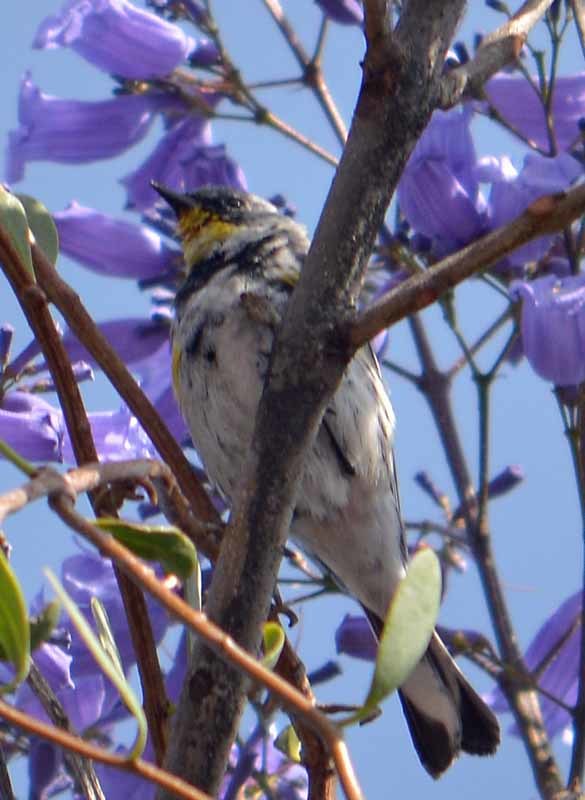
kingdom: Animalia
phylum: Chordata
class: Aves
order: Passeriformes
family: Parulidae
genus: Setophaga
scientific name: Setophaga coronata
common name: Myrtle warbler
